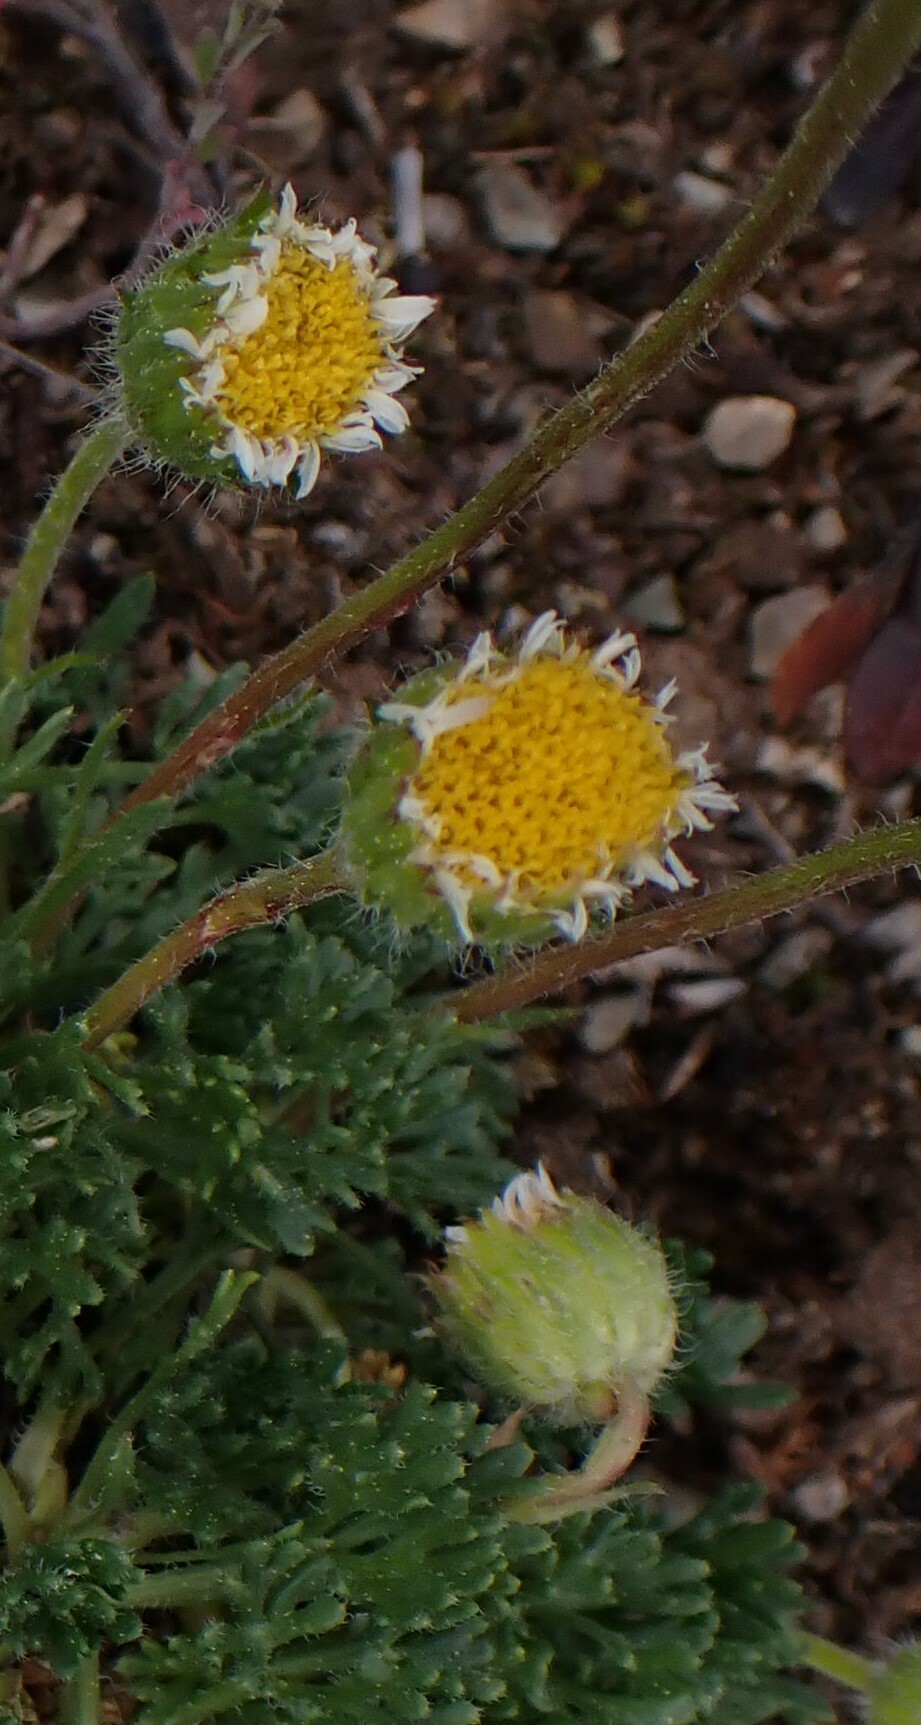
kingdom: Plantae
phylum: Tracheophyta
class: Magnoliopsida
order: Asterales
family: Asteraceae
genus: Erigeron
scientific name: Erigeron compositus
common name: Dwarf mountain fleabane
